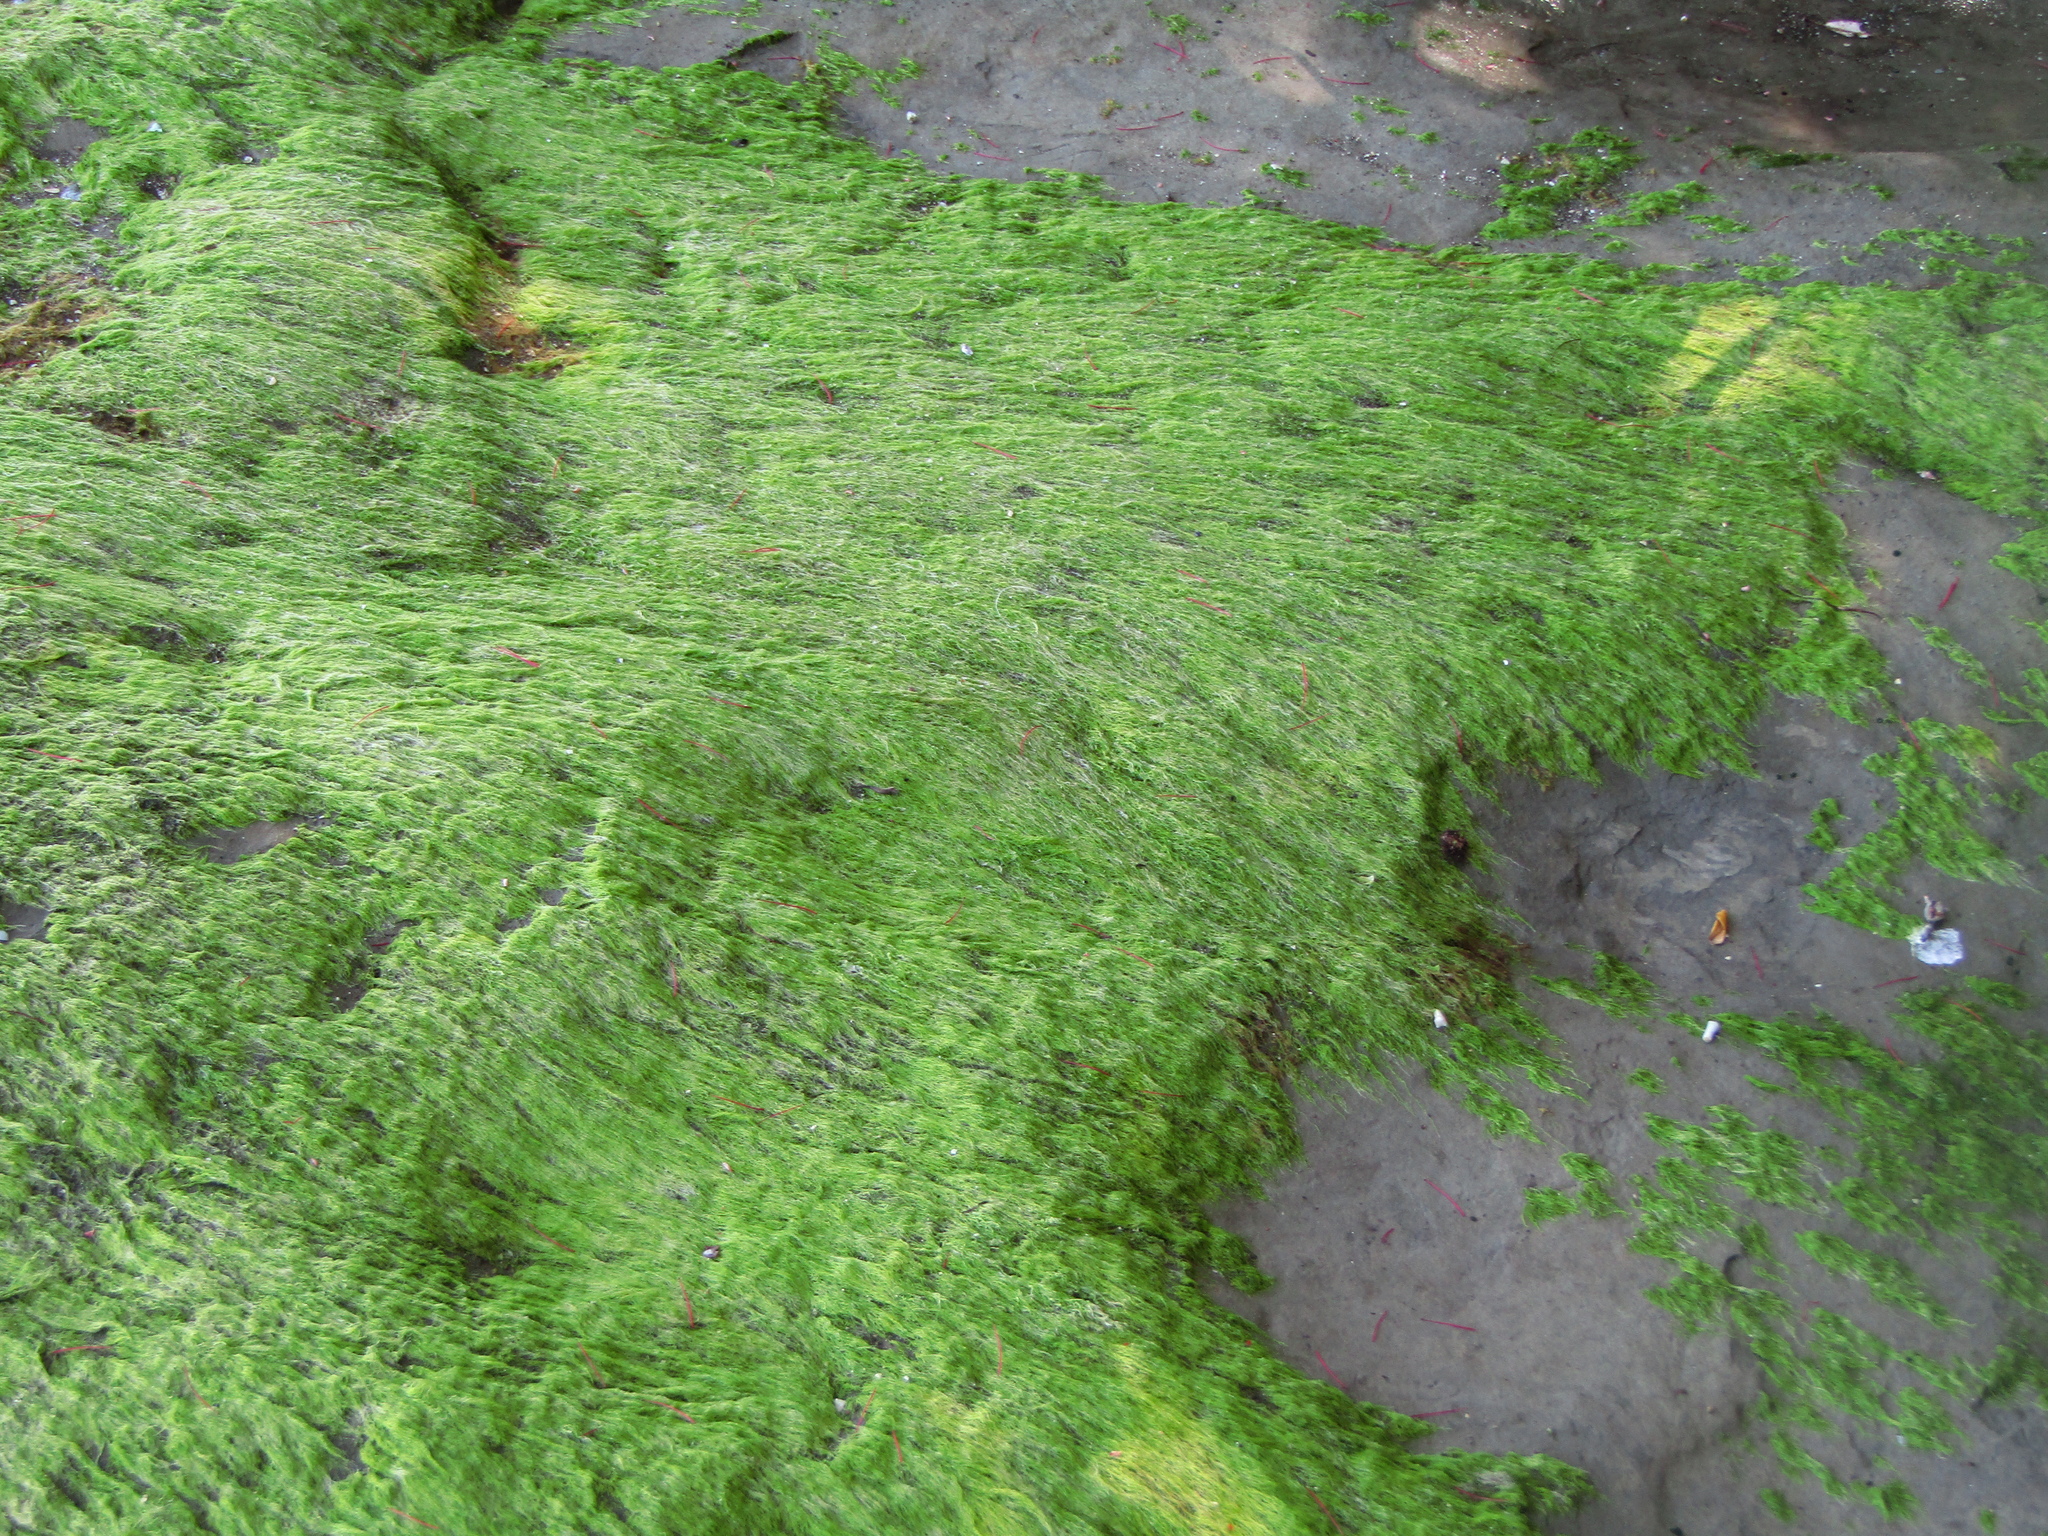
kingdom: Plantae
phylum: Chlorophyta
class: Ulvophyceae
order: Ulvales
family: Ulvaceae
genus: Ulva
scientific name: Ulva intestinalis
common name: Gut weed
